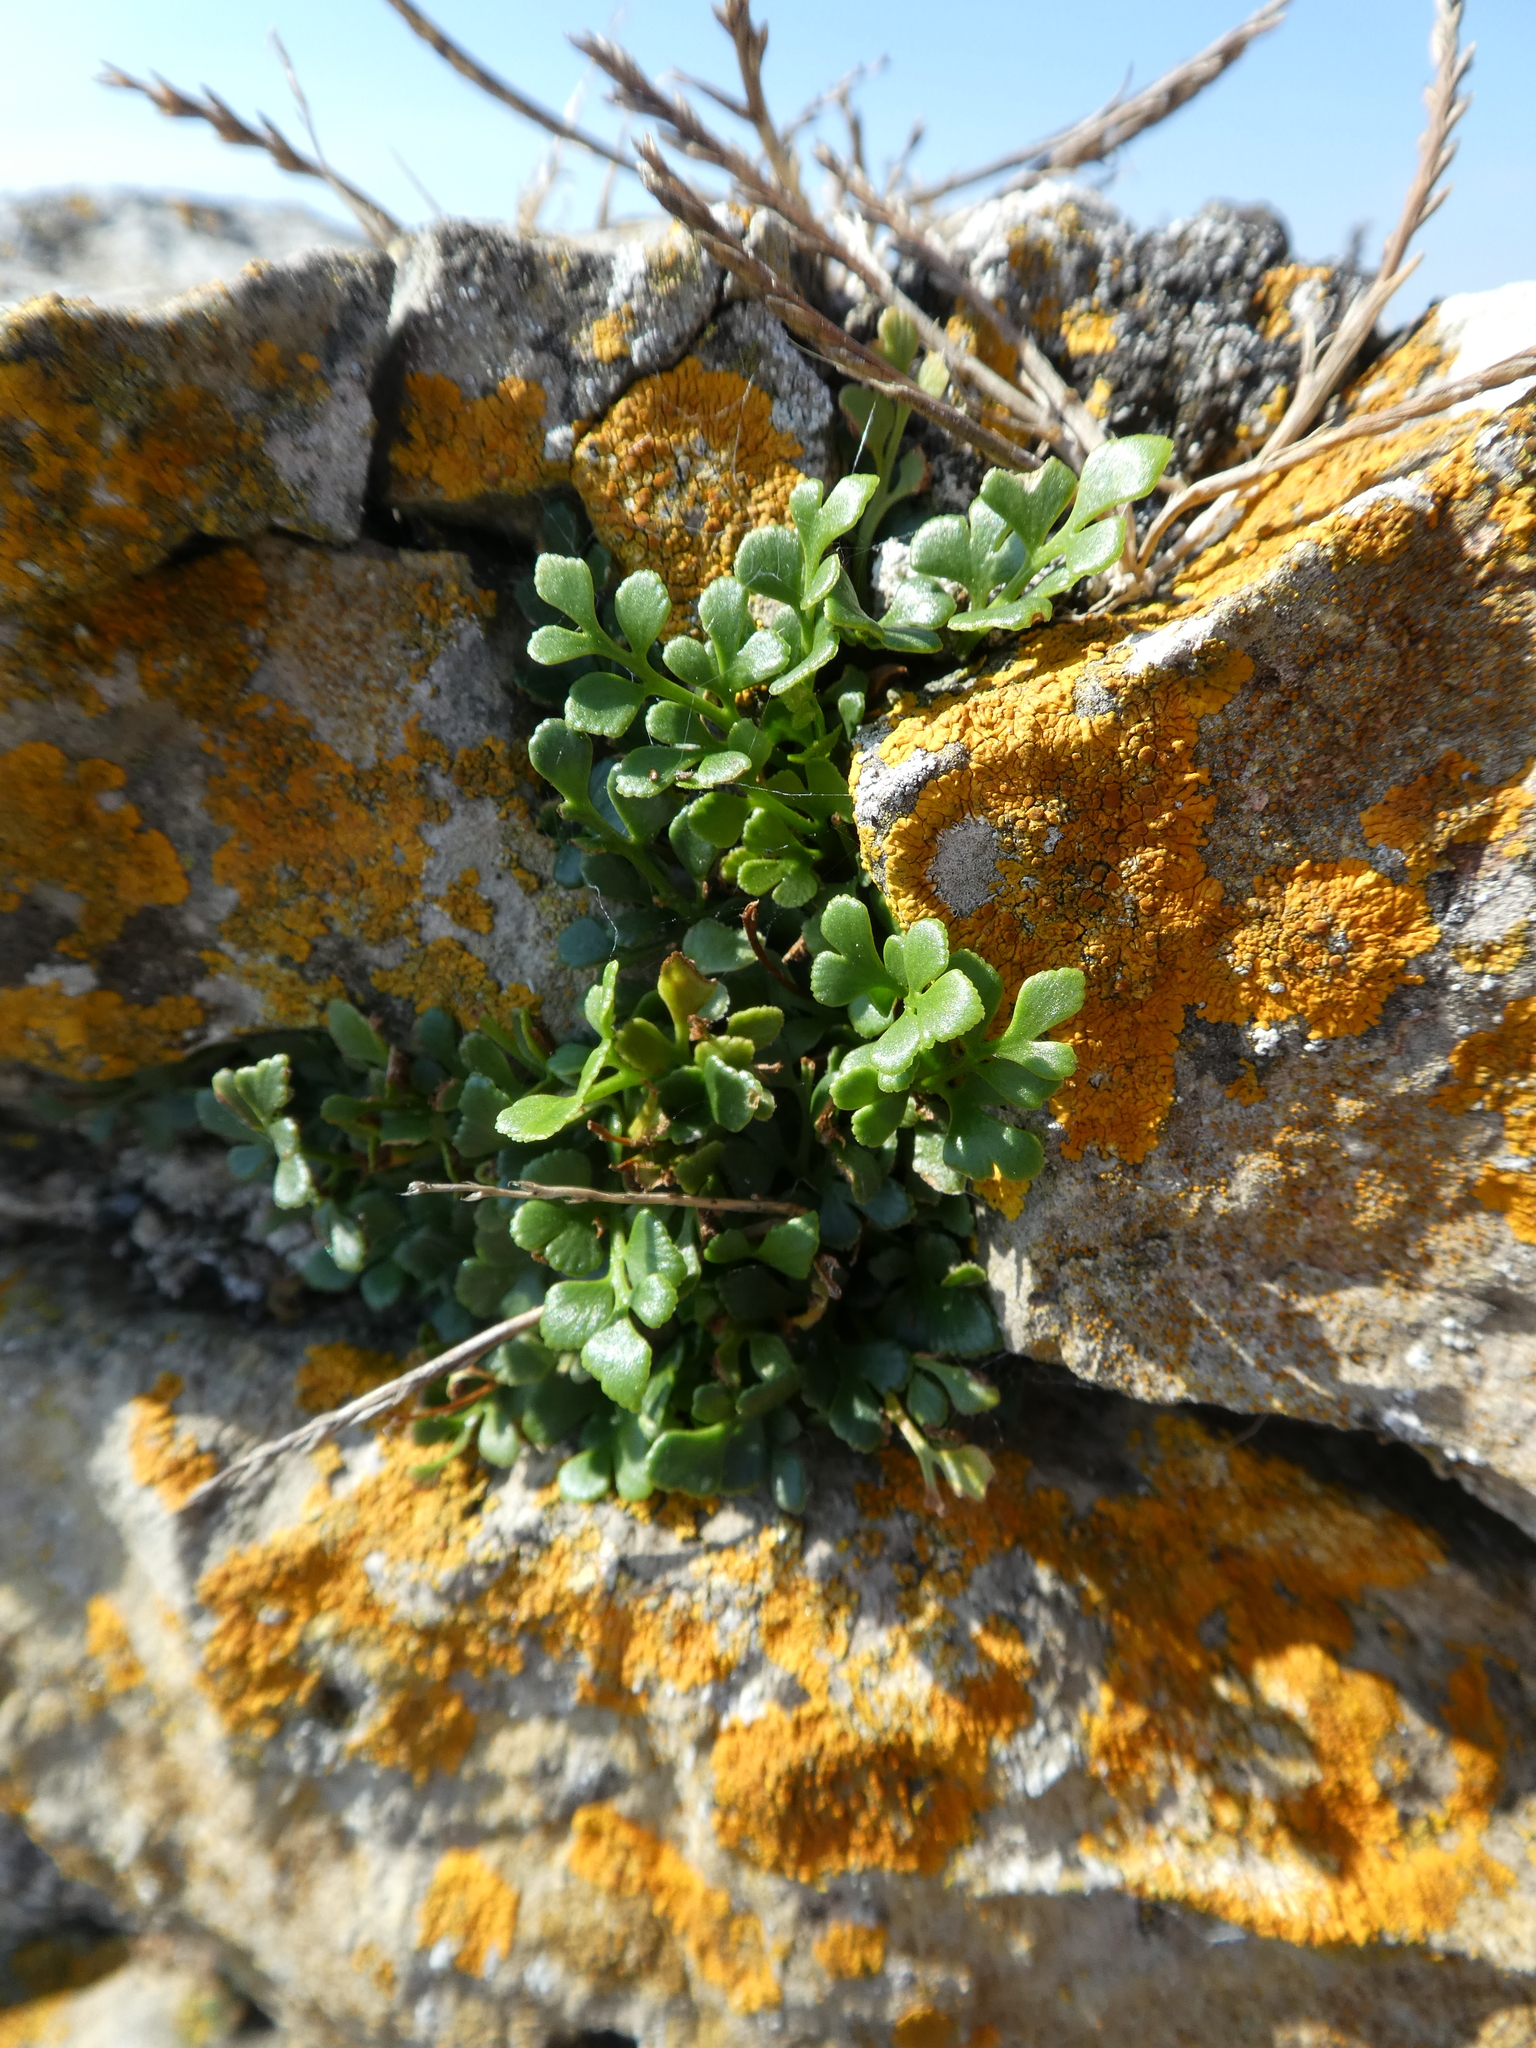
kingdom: Plantae
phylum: Tracheophyta
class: Polypodiopsida
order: Polypodiales
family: Aspleniaceae
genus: Asplenium
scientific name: Asplenium ruta-muraria
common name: Wall-rue
